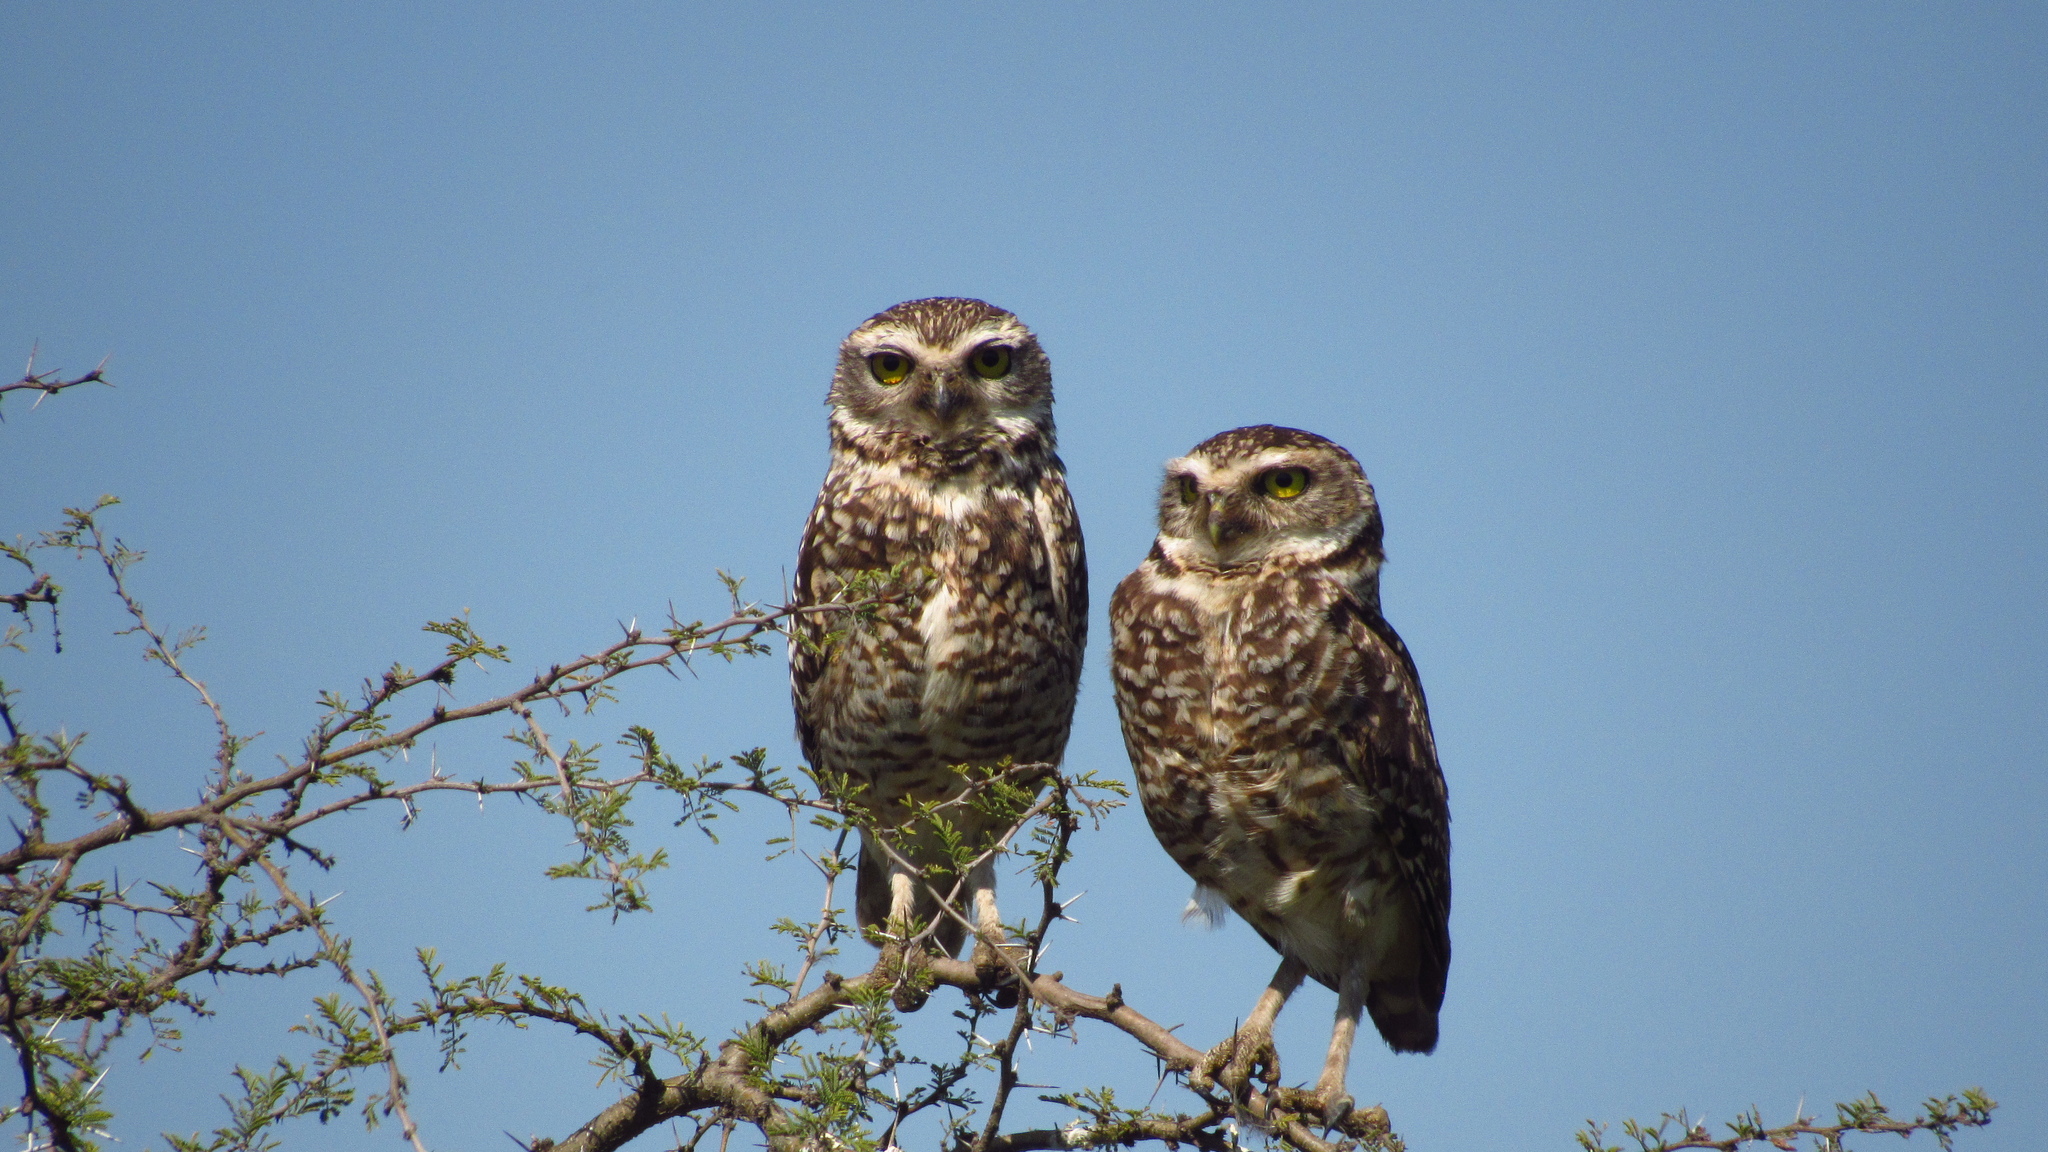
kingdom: Animalia
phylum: Chordata
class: Aves
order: Strigiformes
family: Strigidae
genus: Athene
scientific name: Athene cunicularia
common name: Burrowing owl
